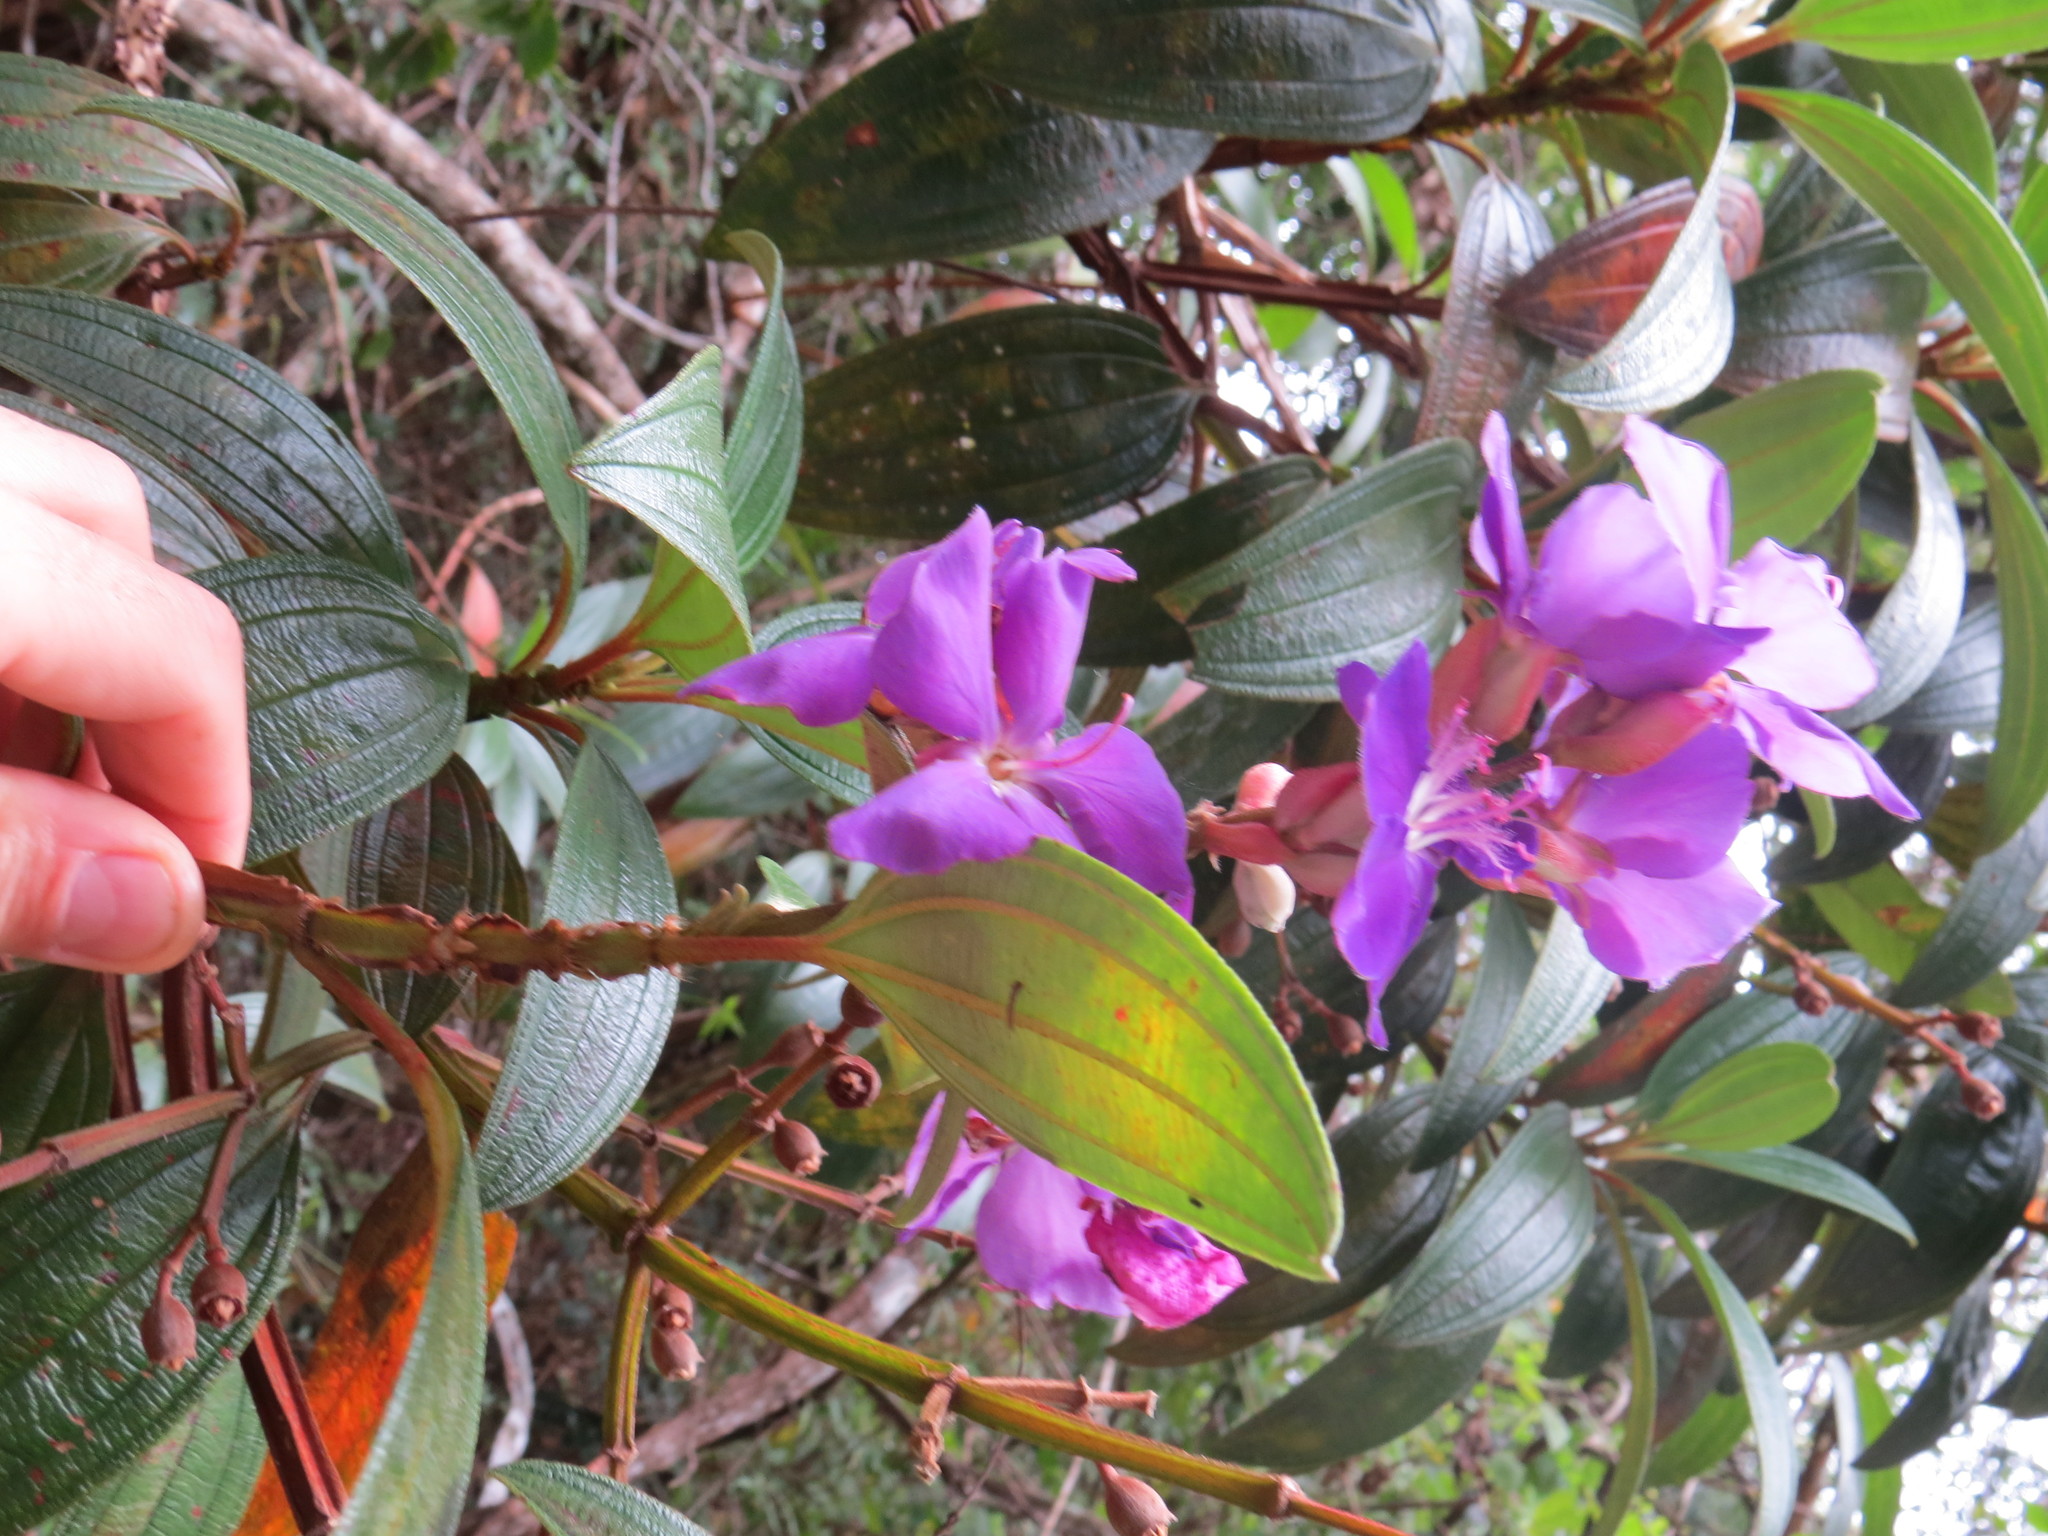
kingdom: Plantae
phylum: Tracheophyta
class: Magnoliopsida
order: Myrtales
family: Melastomataceae
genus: Pleroma
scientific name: Pleroma granulosum
